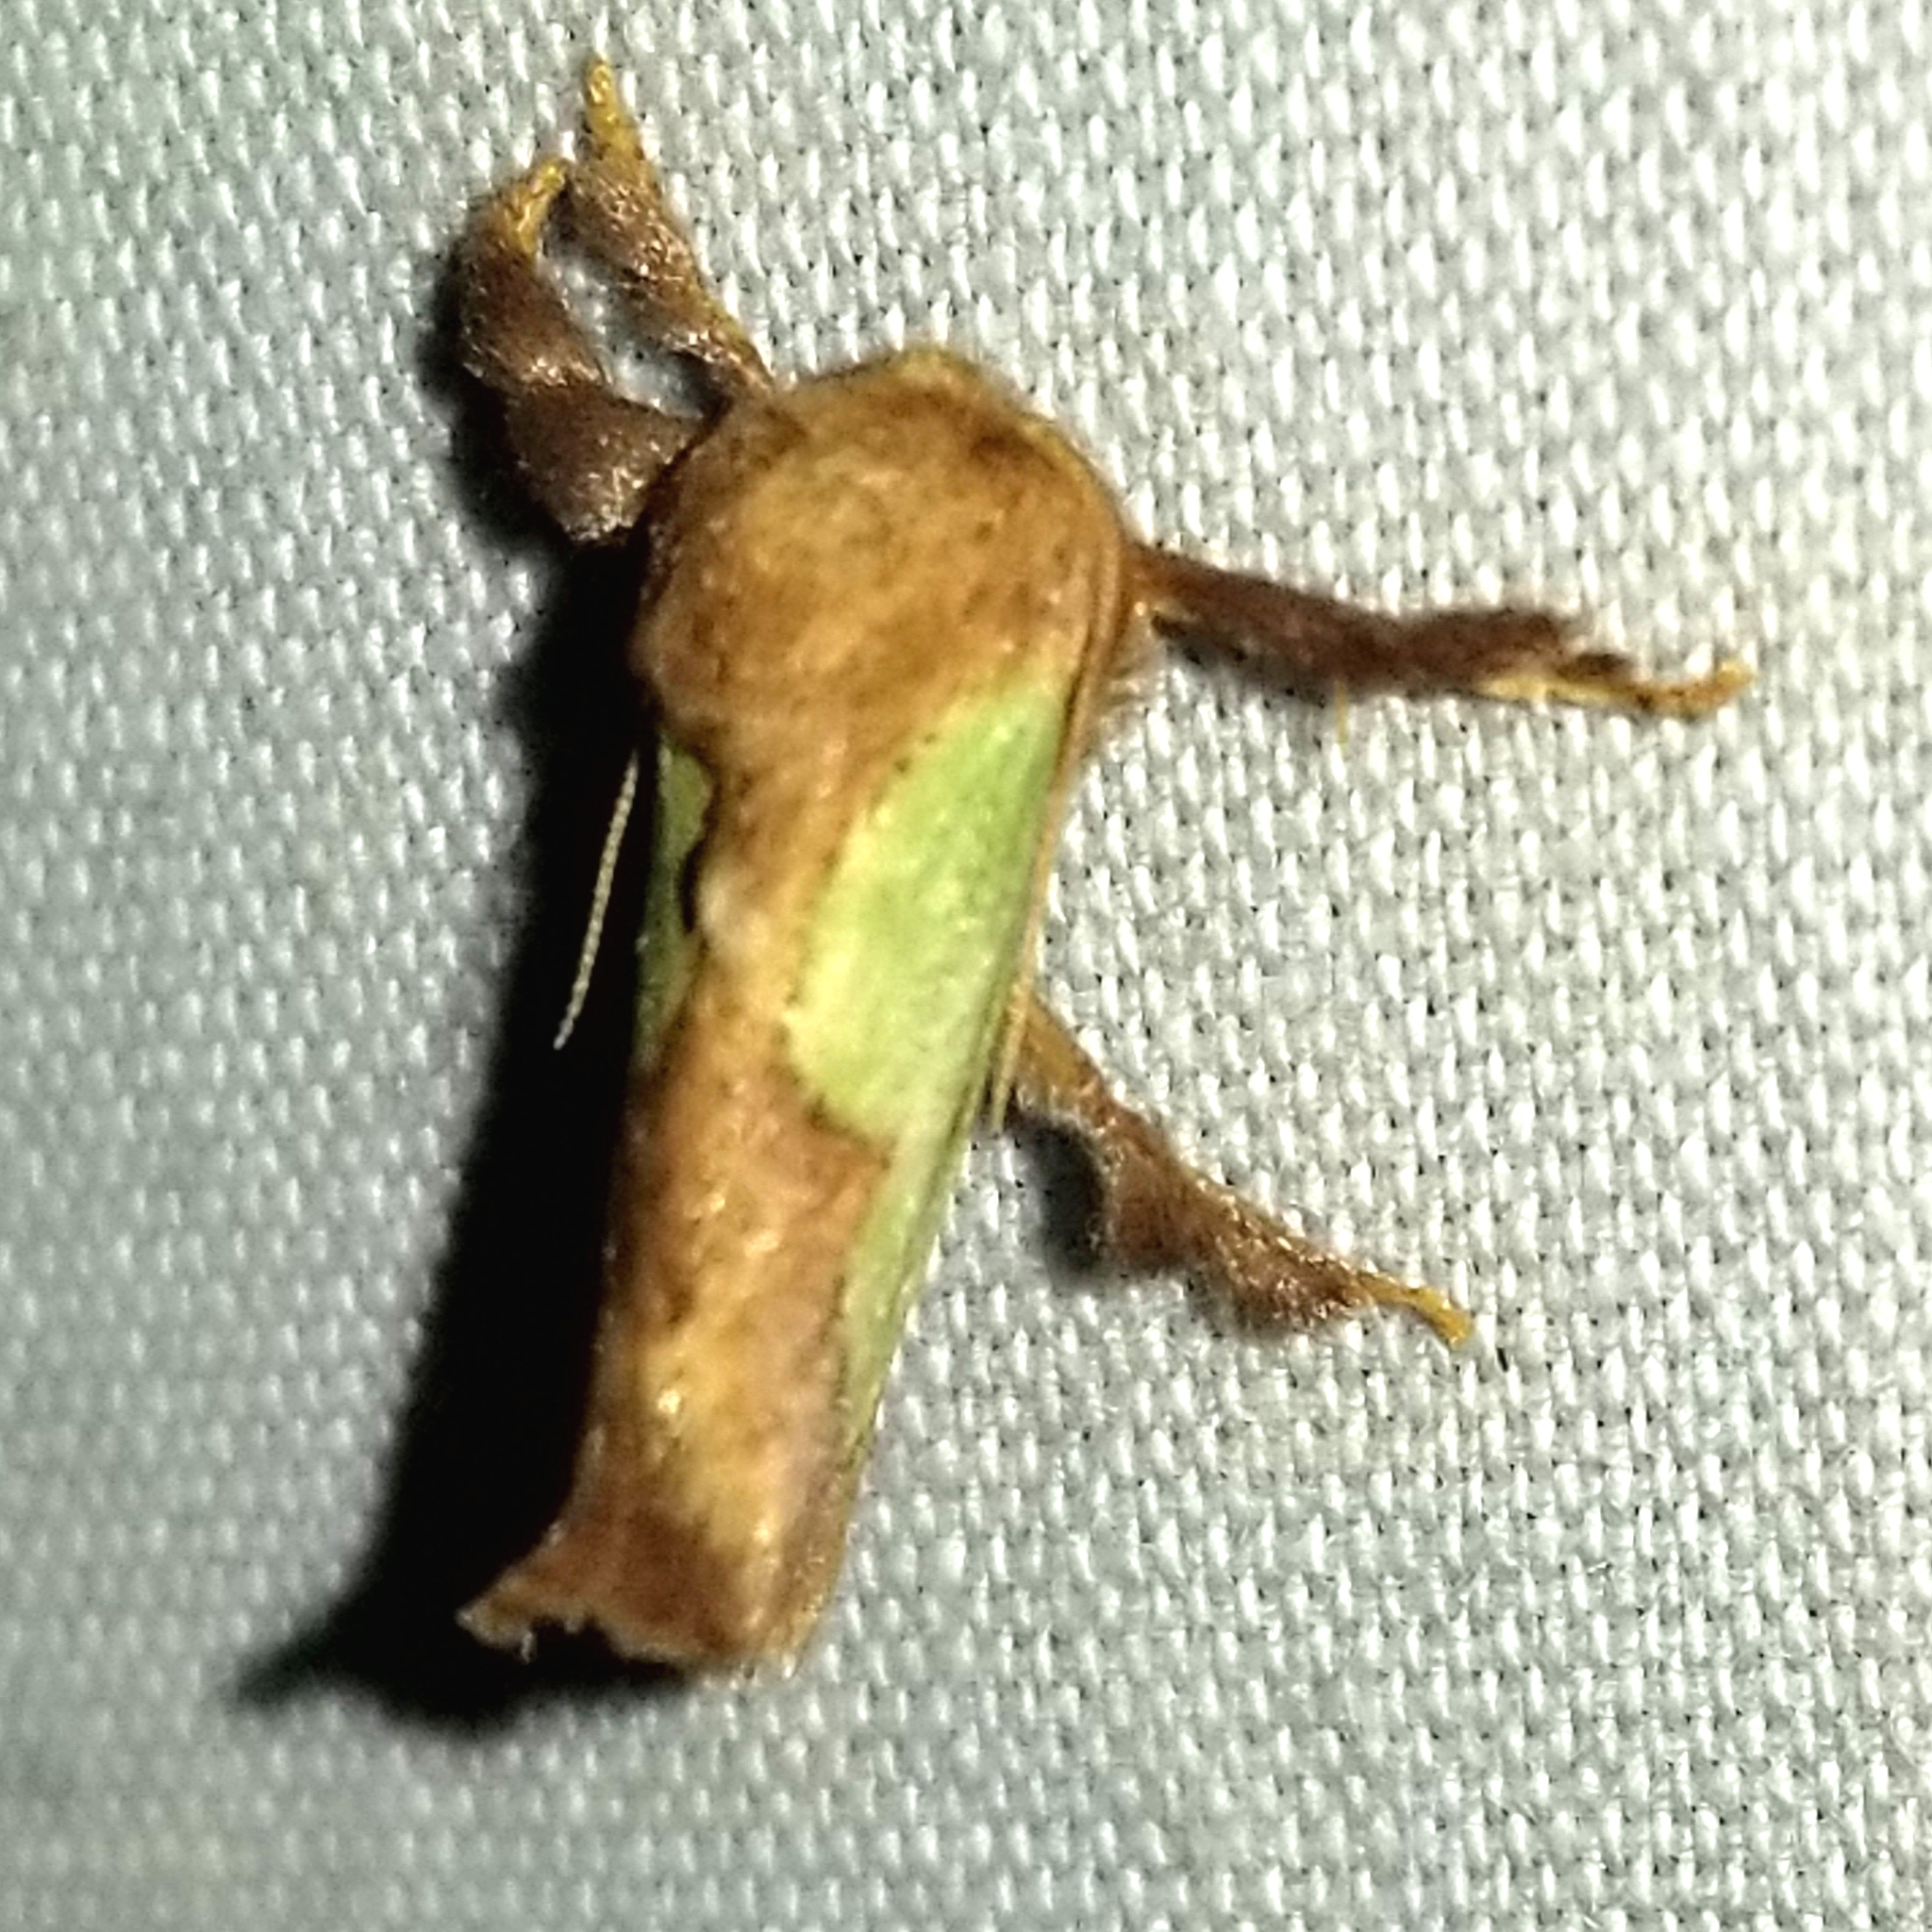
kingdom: Animalia
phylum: Arthropoda
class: Insecta
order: Lepidoptera
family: Limacodidae
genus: Euclea
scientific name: Euclea incisa
